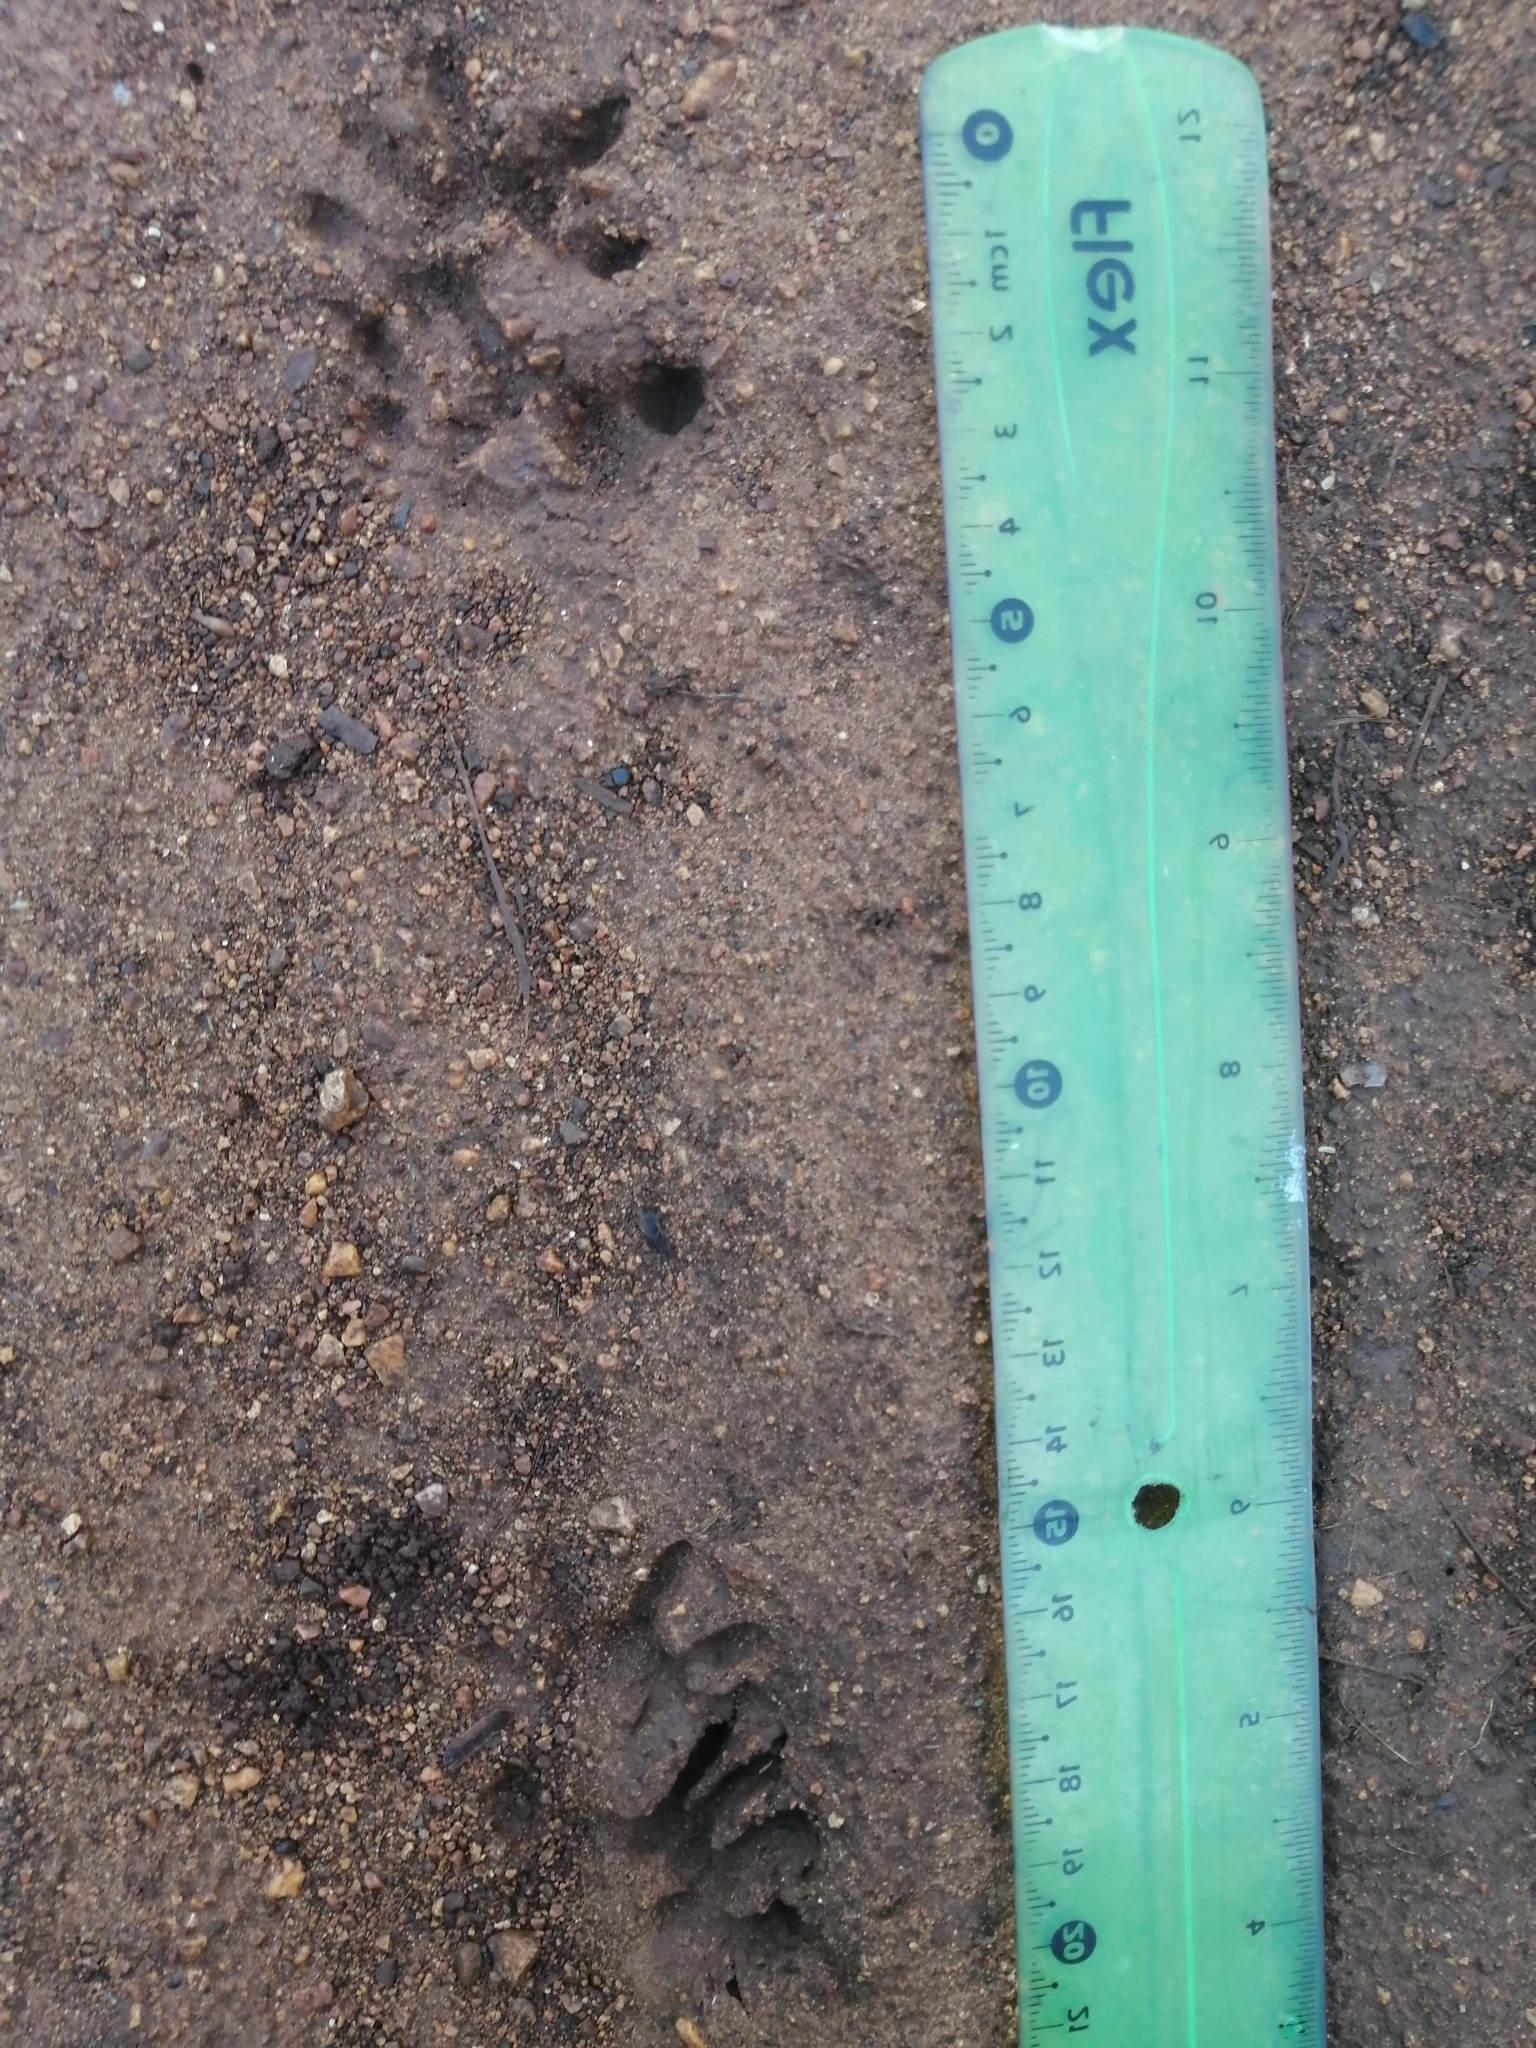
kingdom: Animalia
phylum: Chordata
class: Mammalia
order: Didelphimorphia
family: Didelphidae
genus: Didelphis
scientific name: Didelphis
